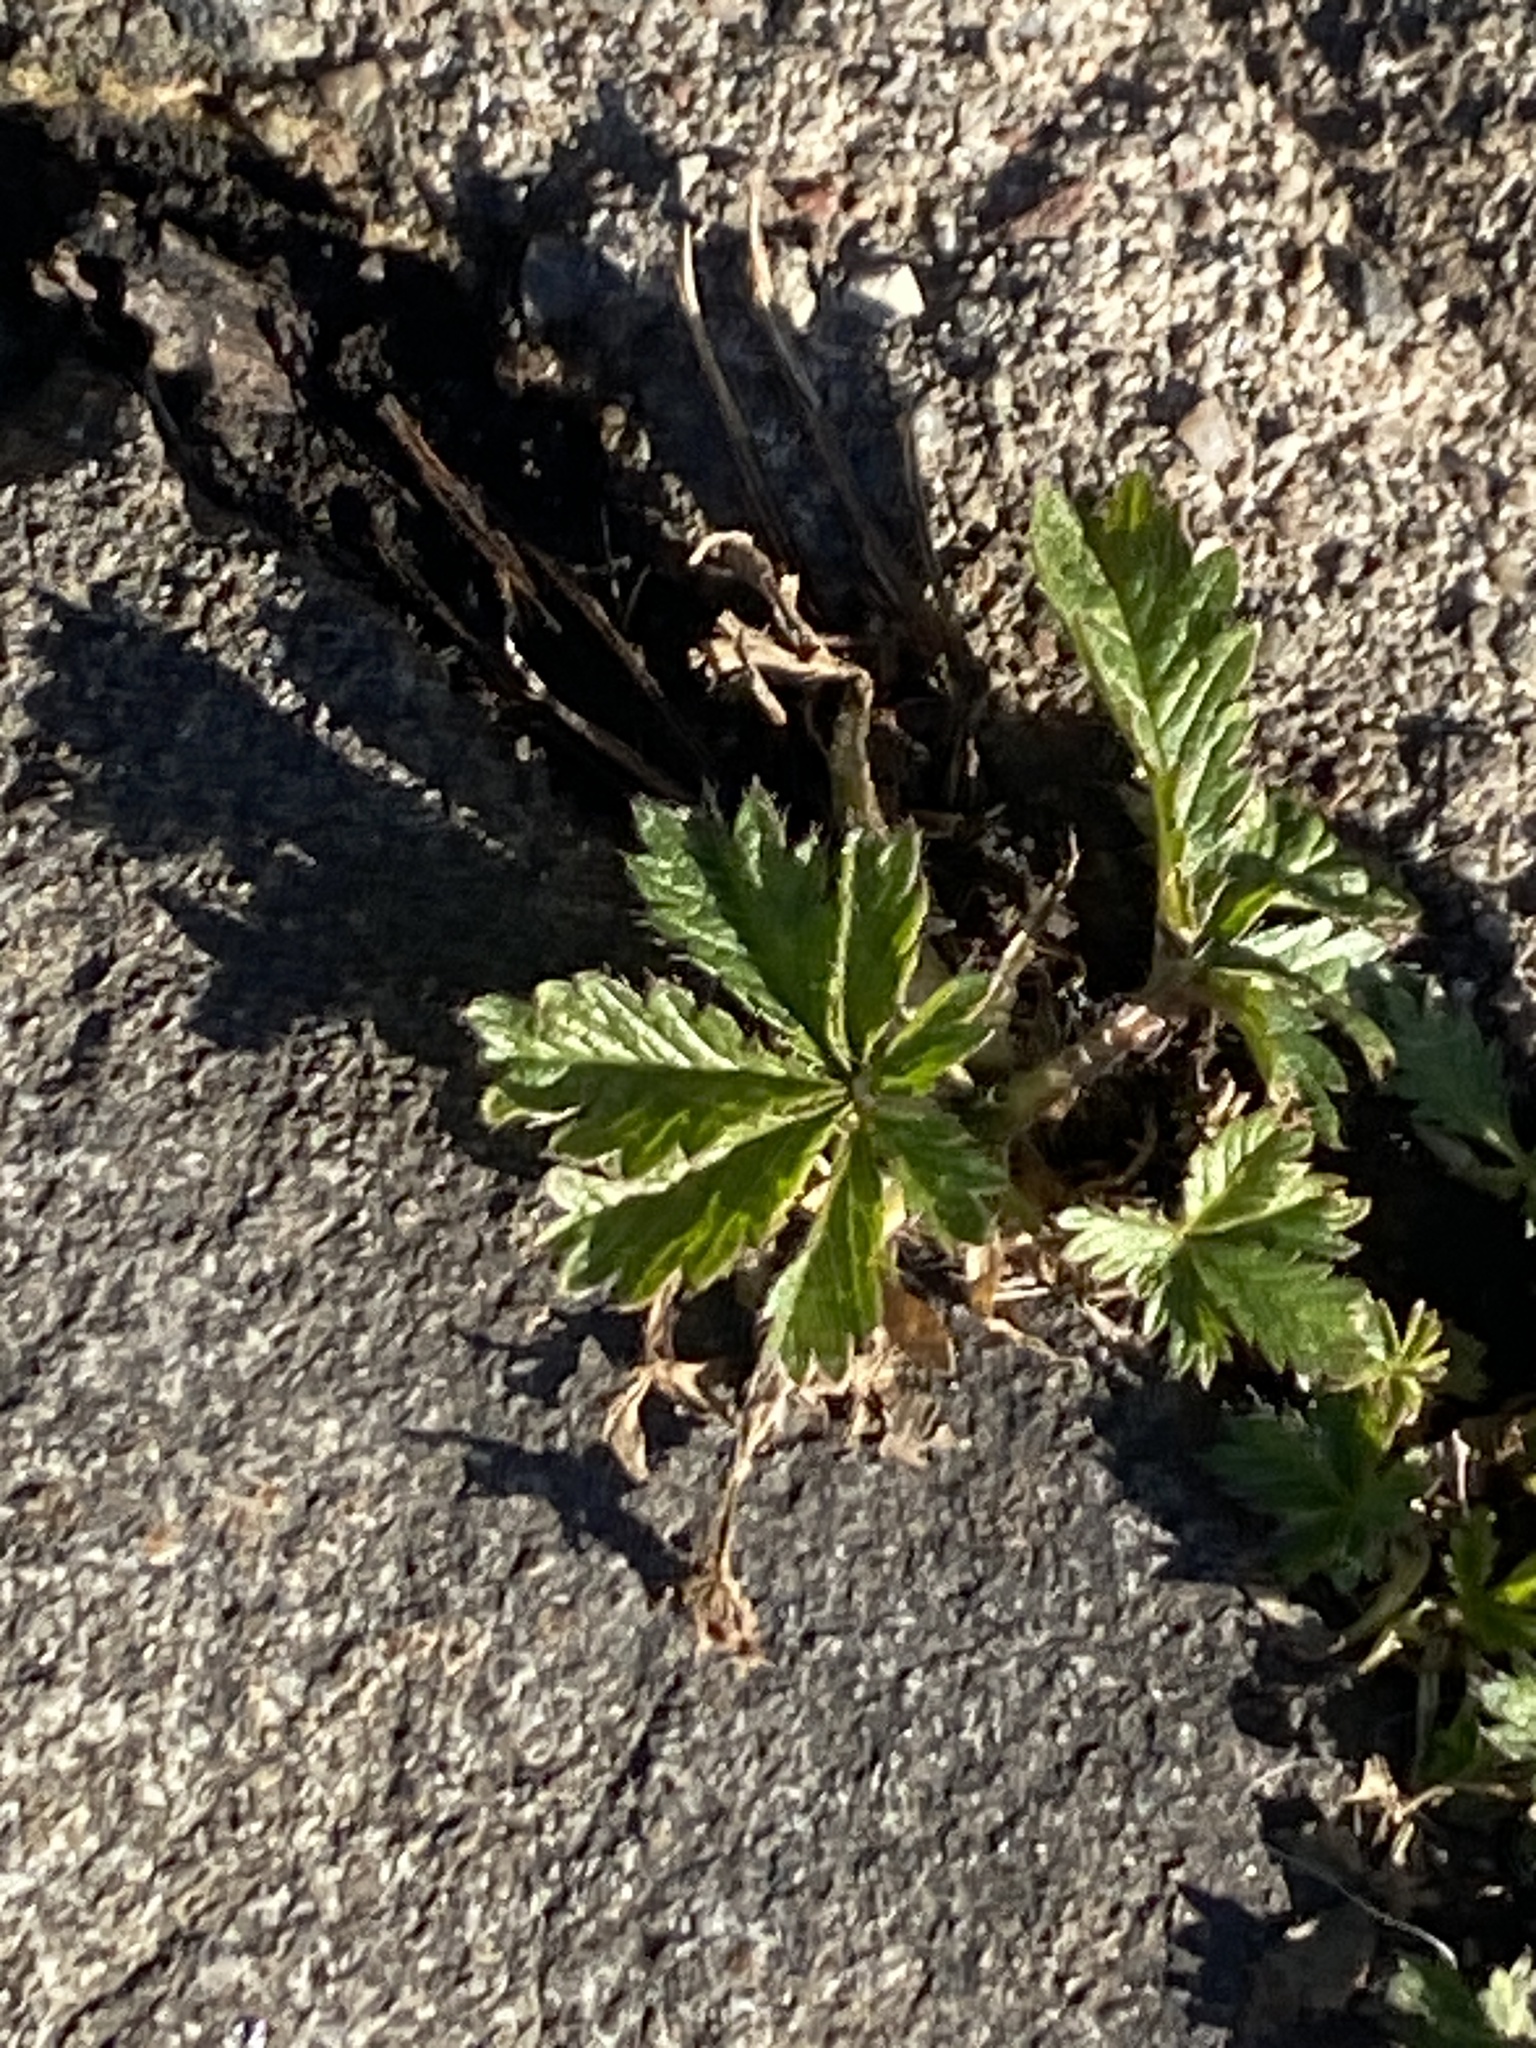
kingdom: Plantae
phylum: Tracheophyta
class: Magnoliopsida
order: Rosales
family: Rosaceae
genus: Potentilla
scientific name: Potentilla argentea
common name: Hoary cinquefoil
